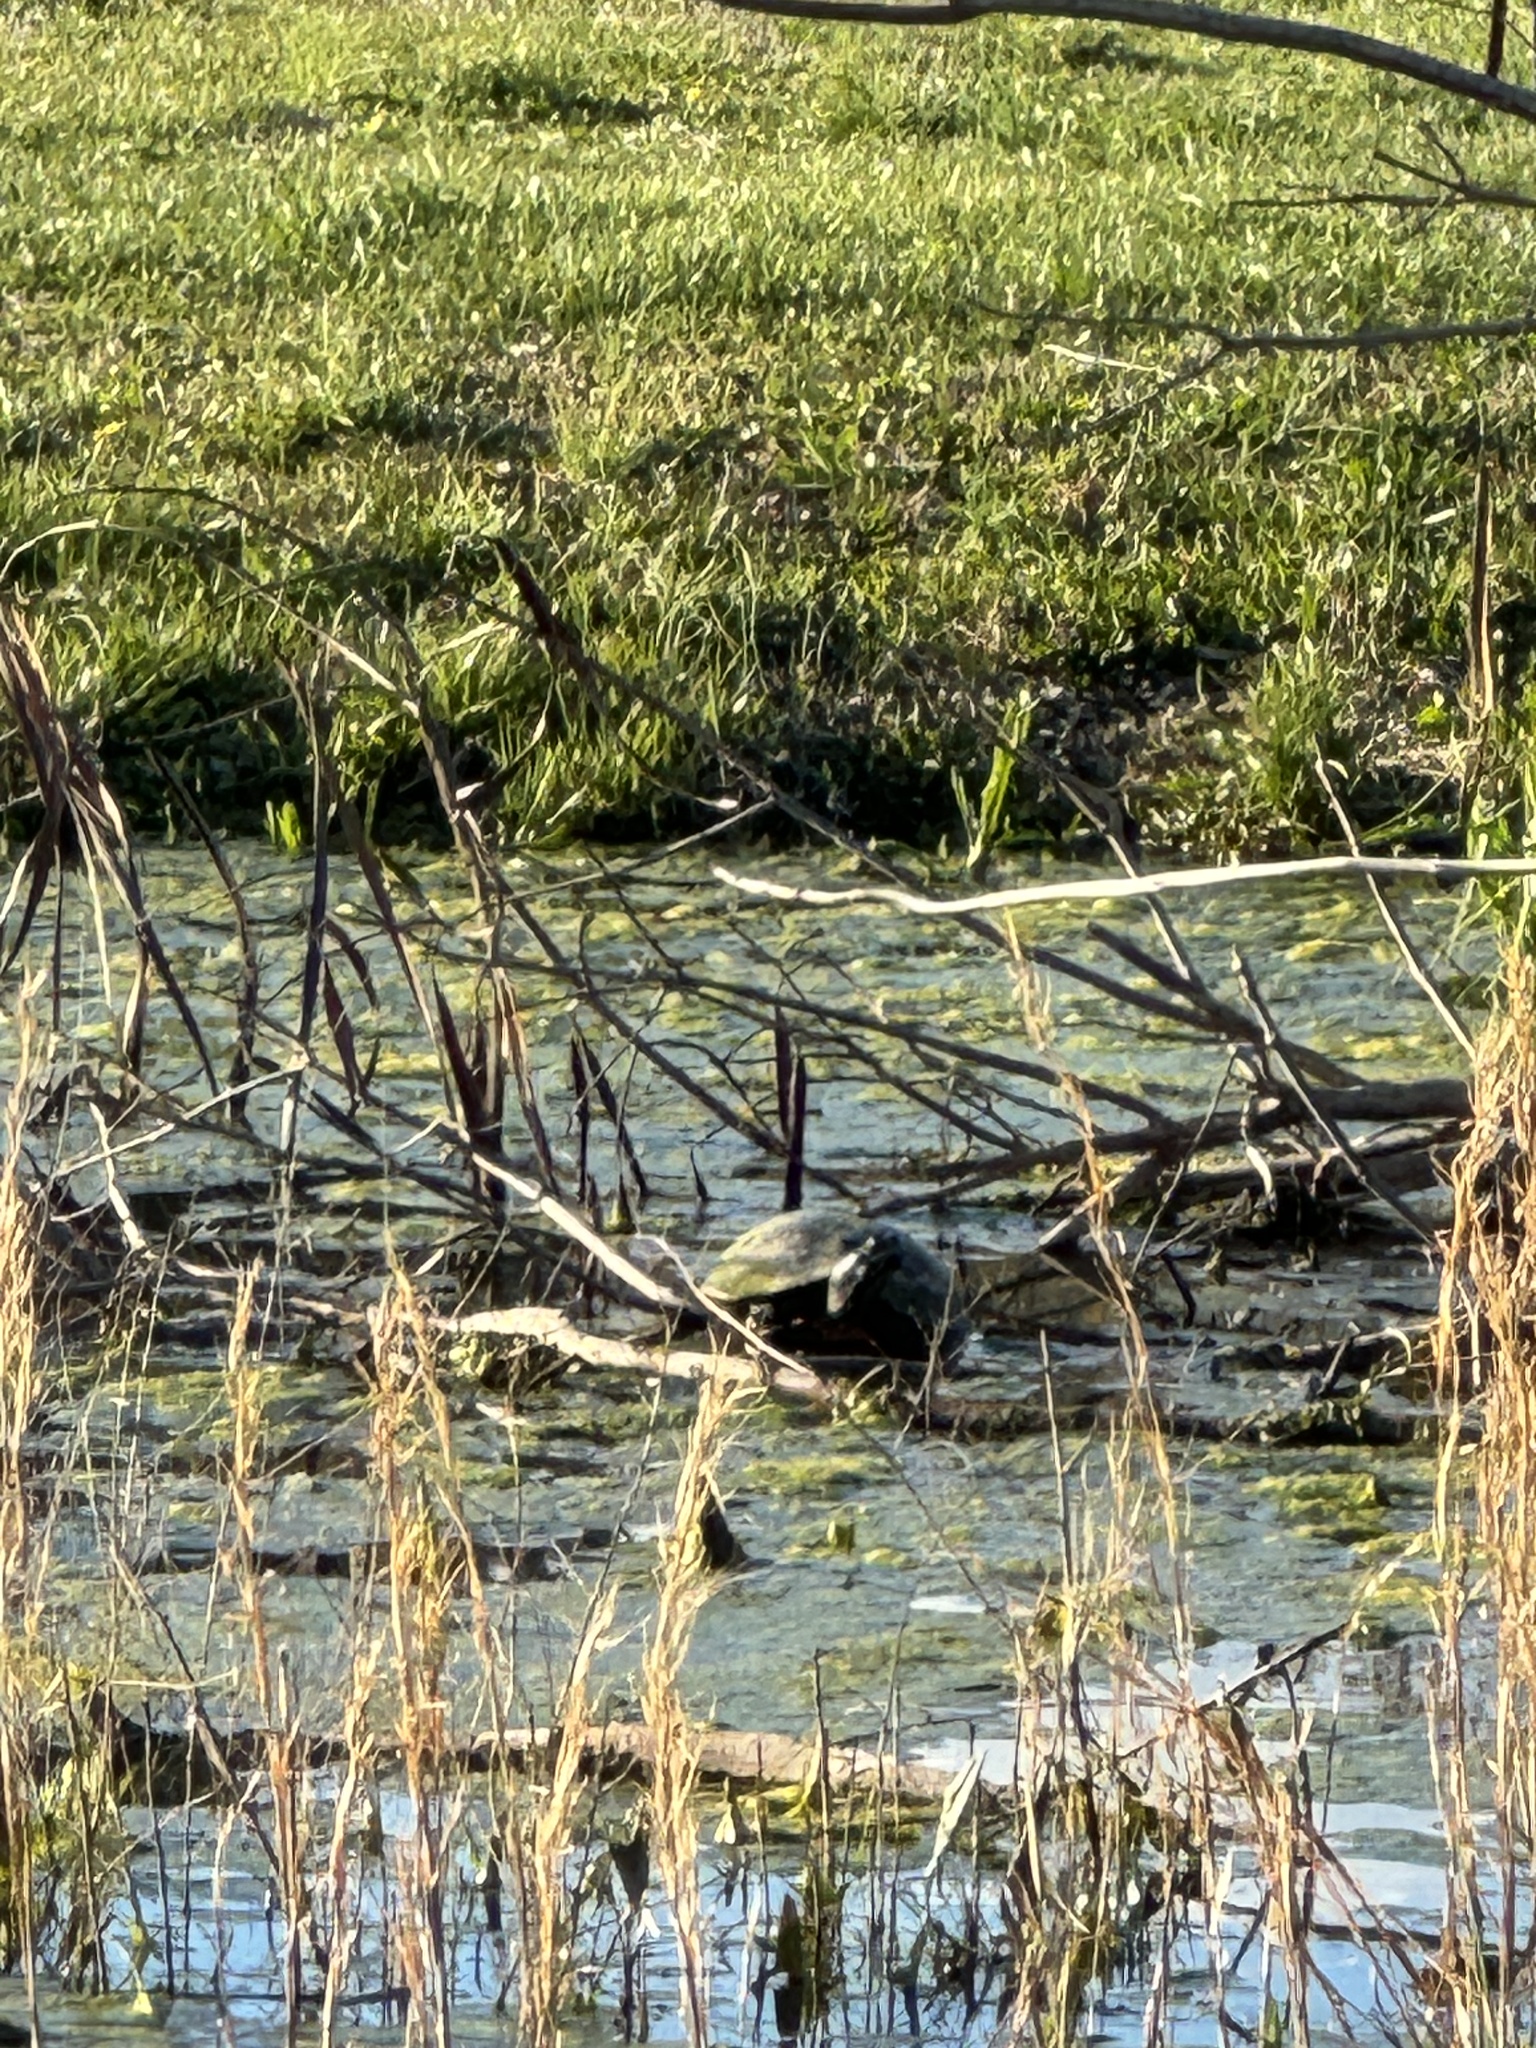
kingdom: Animalia
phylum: Chordata
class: Testudines
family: Emydidae
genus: Pseudemys
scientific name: Pseudemys rubriventris
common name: American red-bellied turtle
